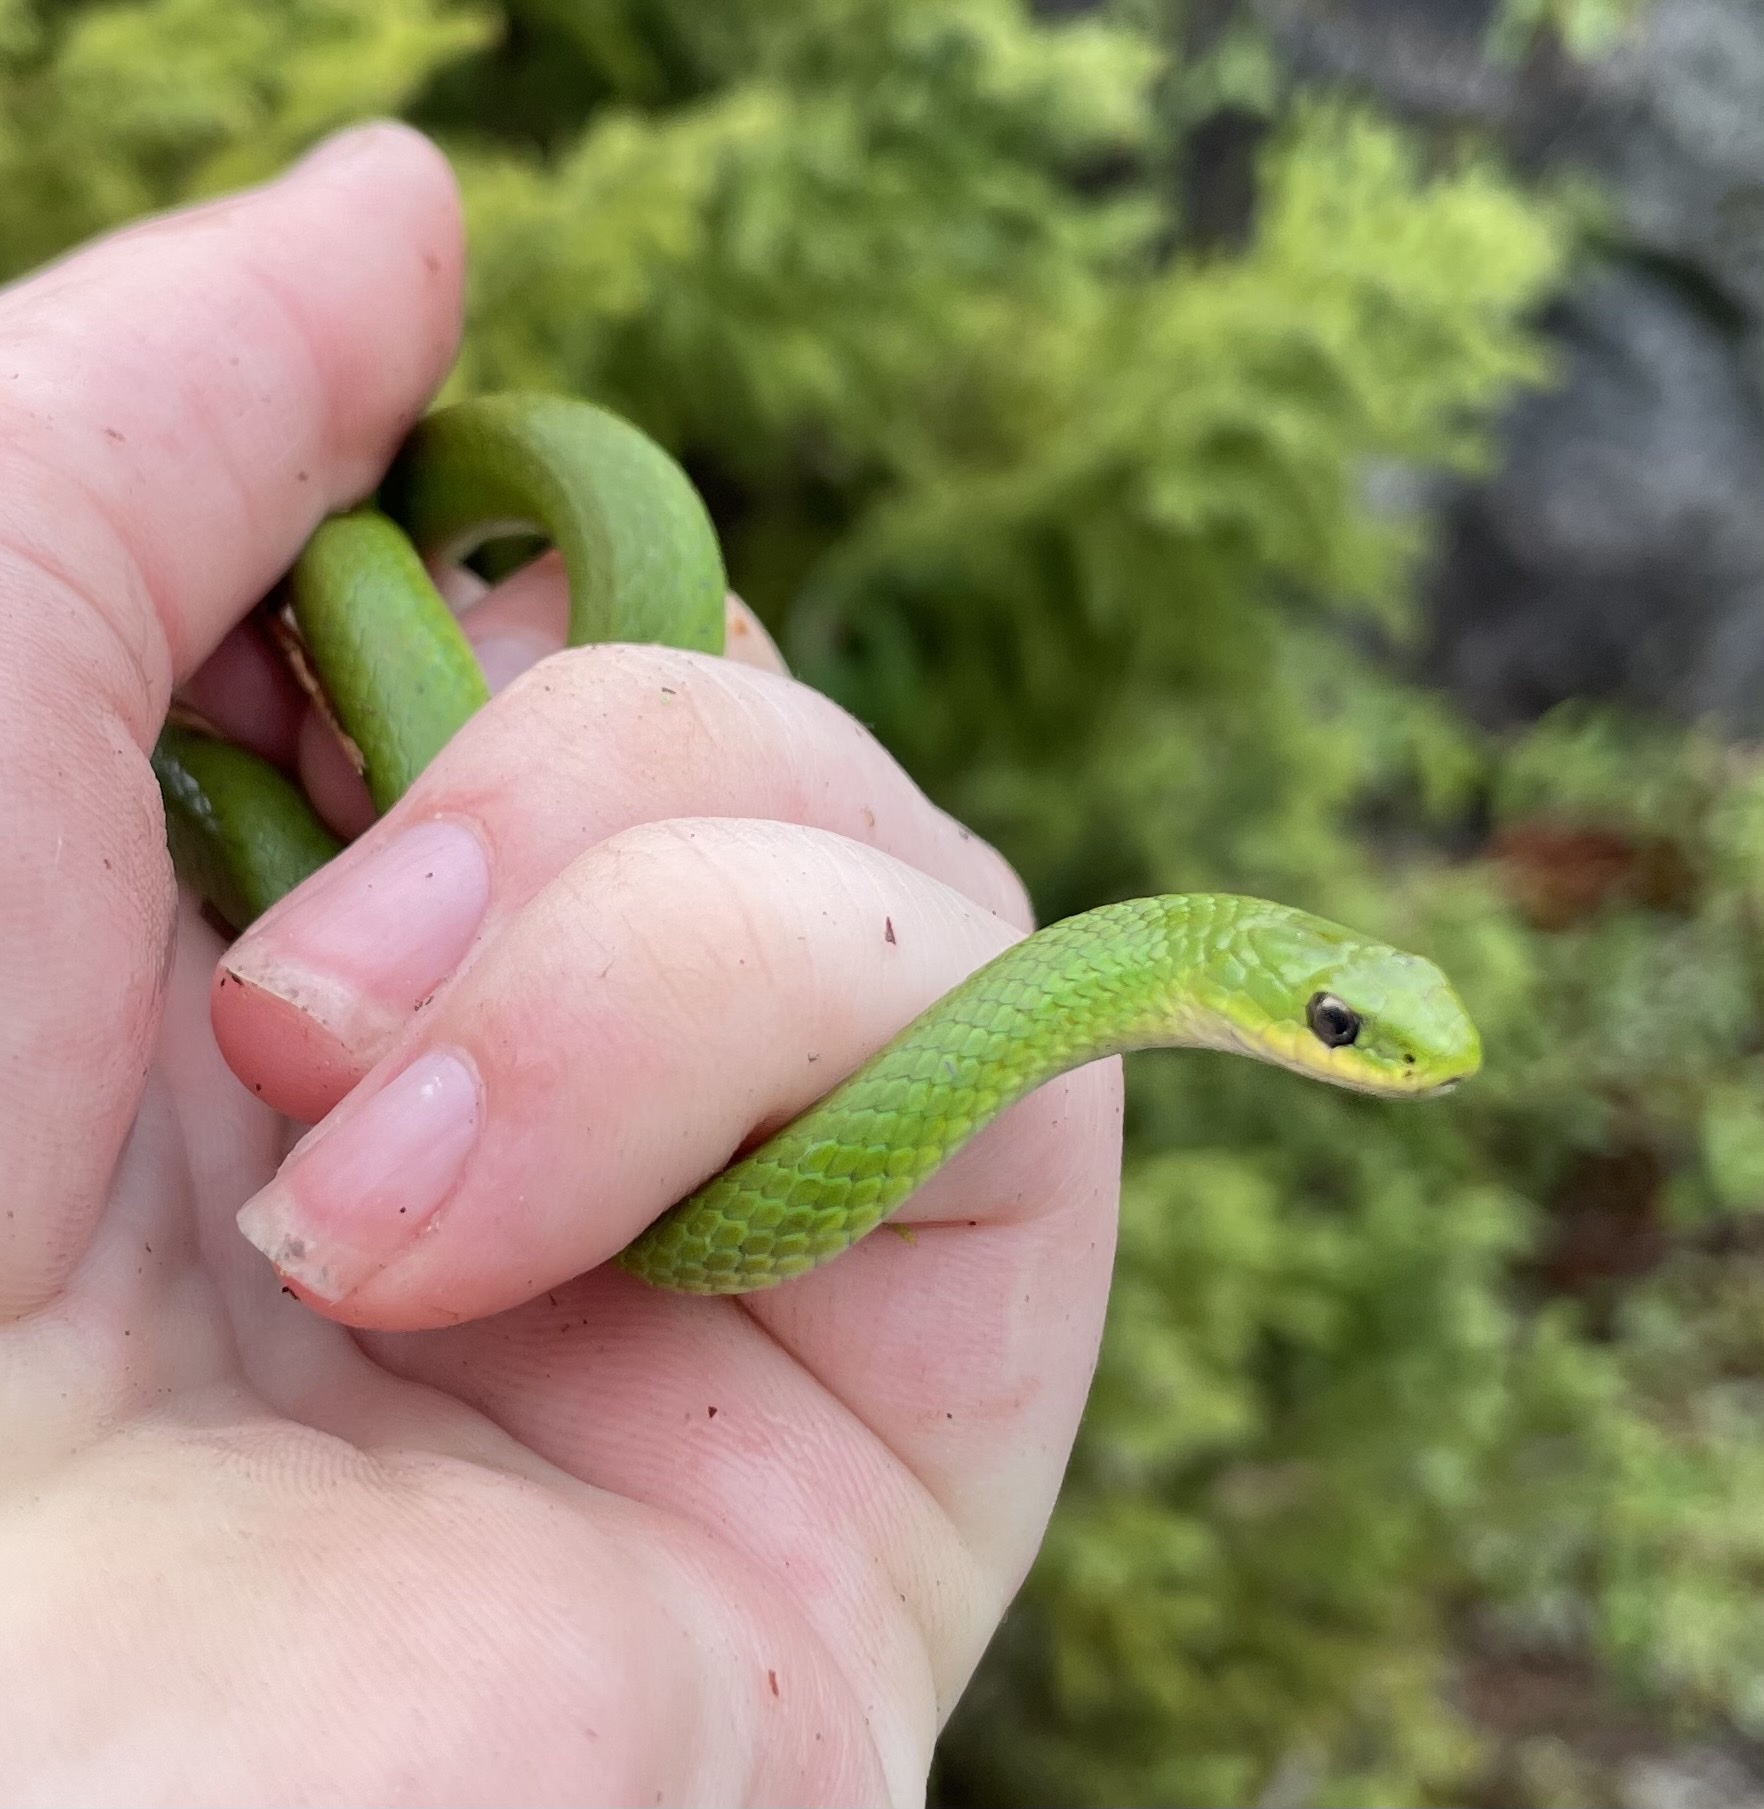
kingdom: Animalia
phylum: Chordata
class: Squamata
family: Colubridae
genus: Opheodrys
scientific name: Opheodrys vernalis
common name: Smooth green snake
